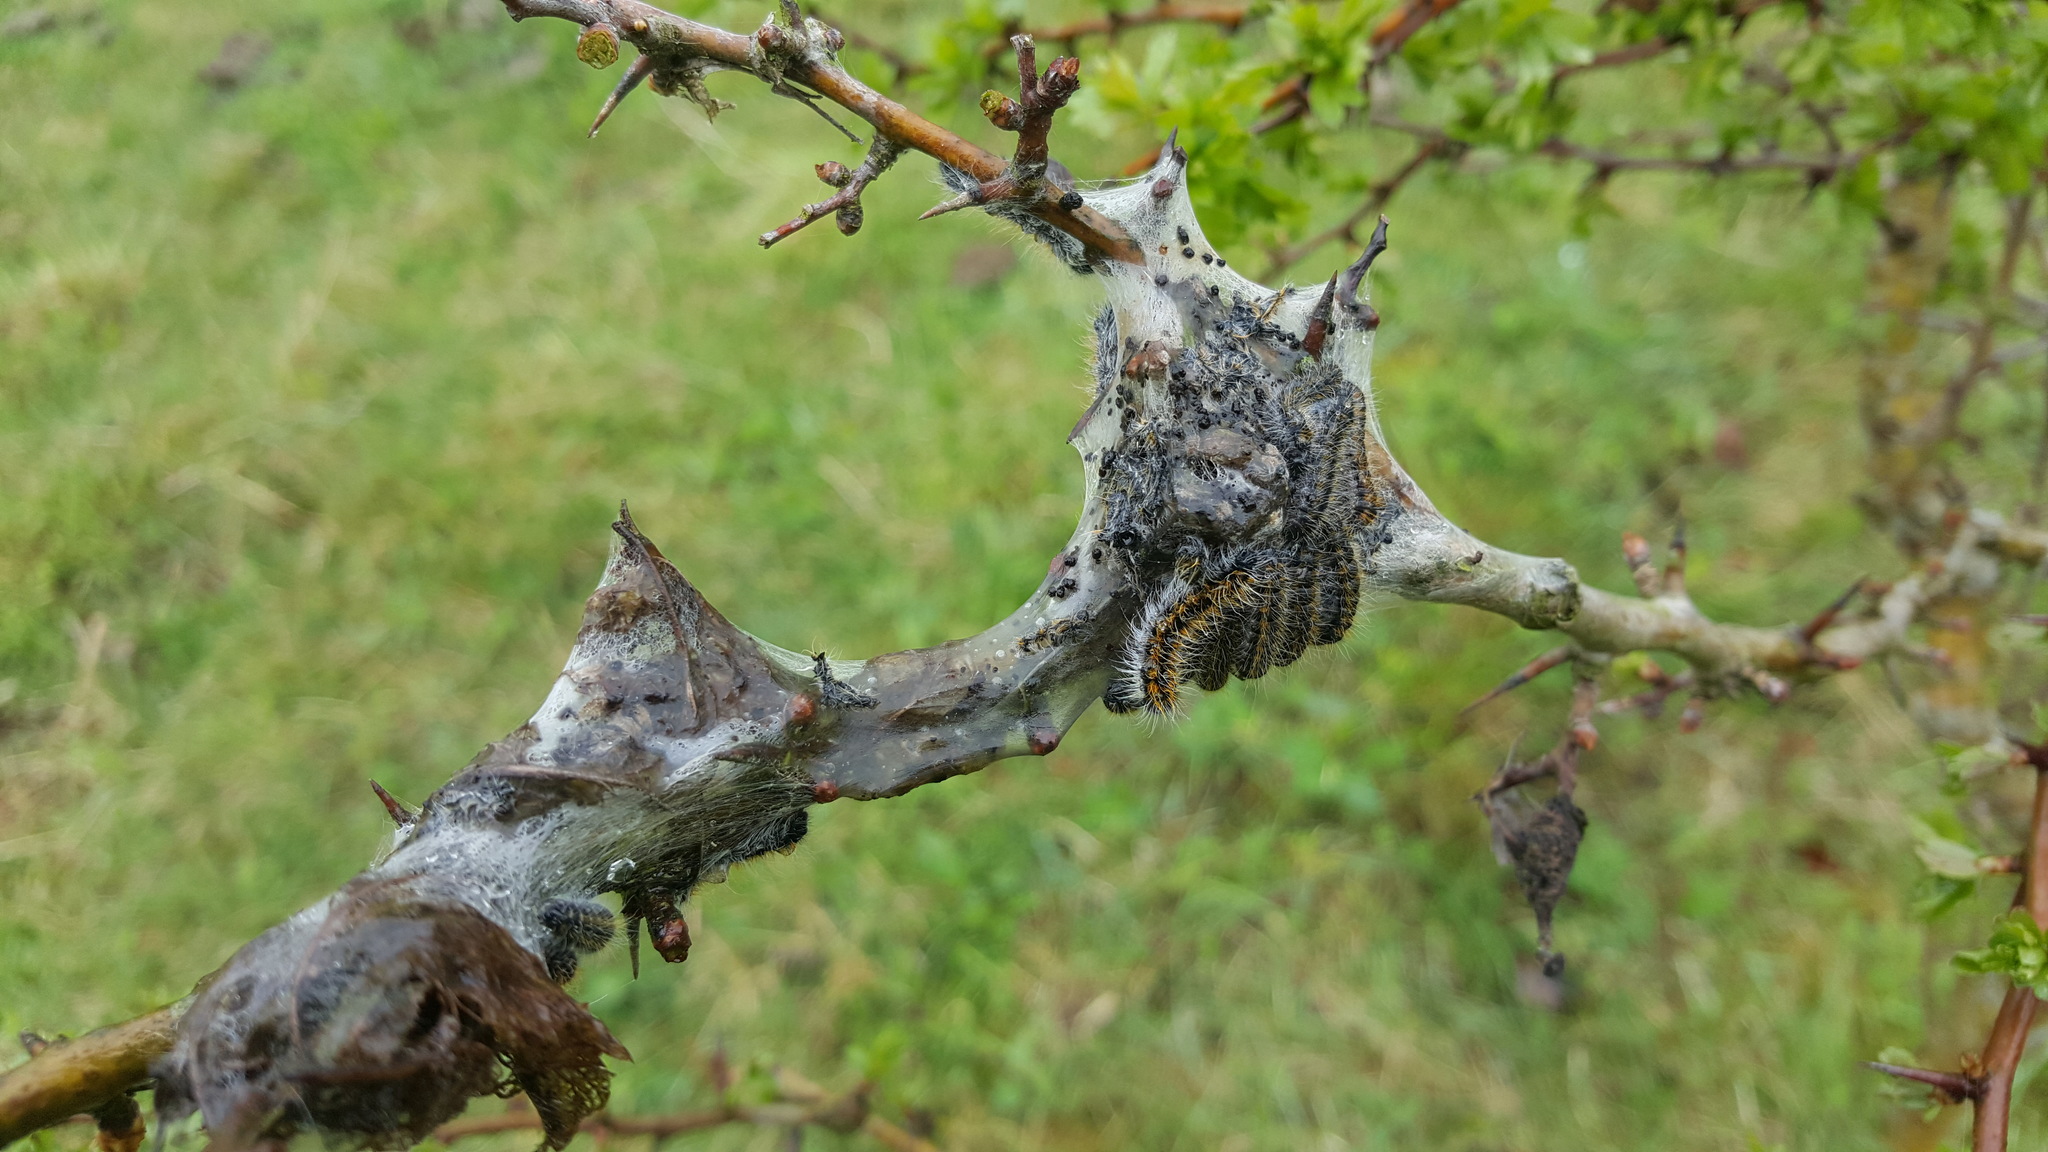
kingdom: Animalia
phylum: Arthropoda
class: Insecta
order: Lepidoptera
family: Pieridae
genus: Aporia
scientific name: Aporia crataegi
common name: Black-veined white
